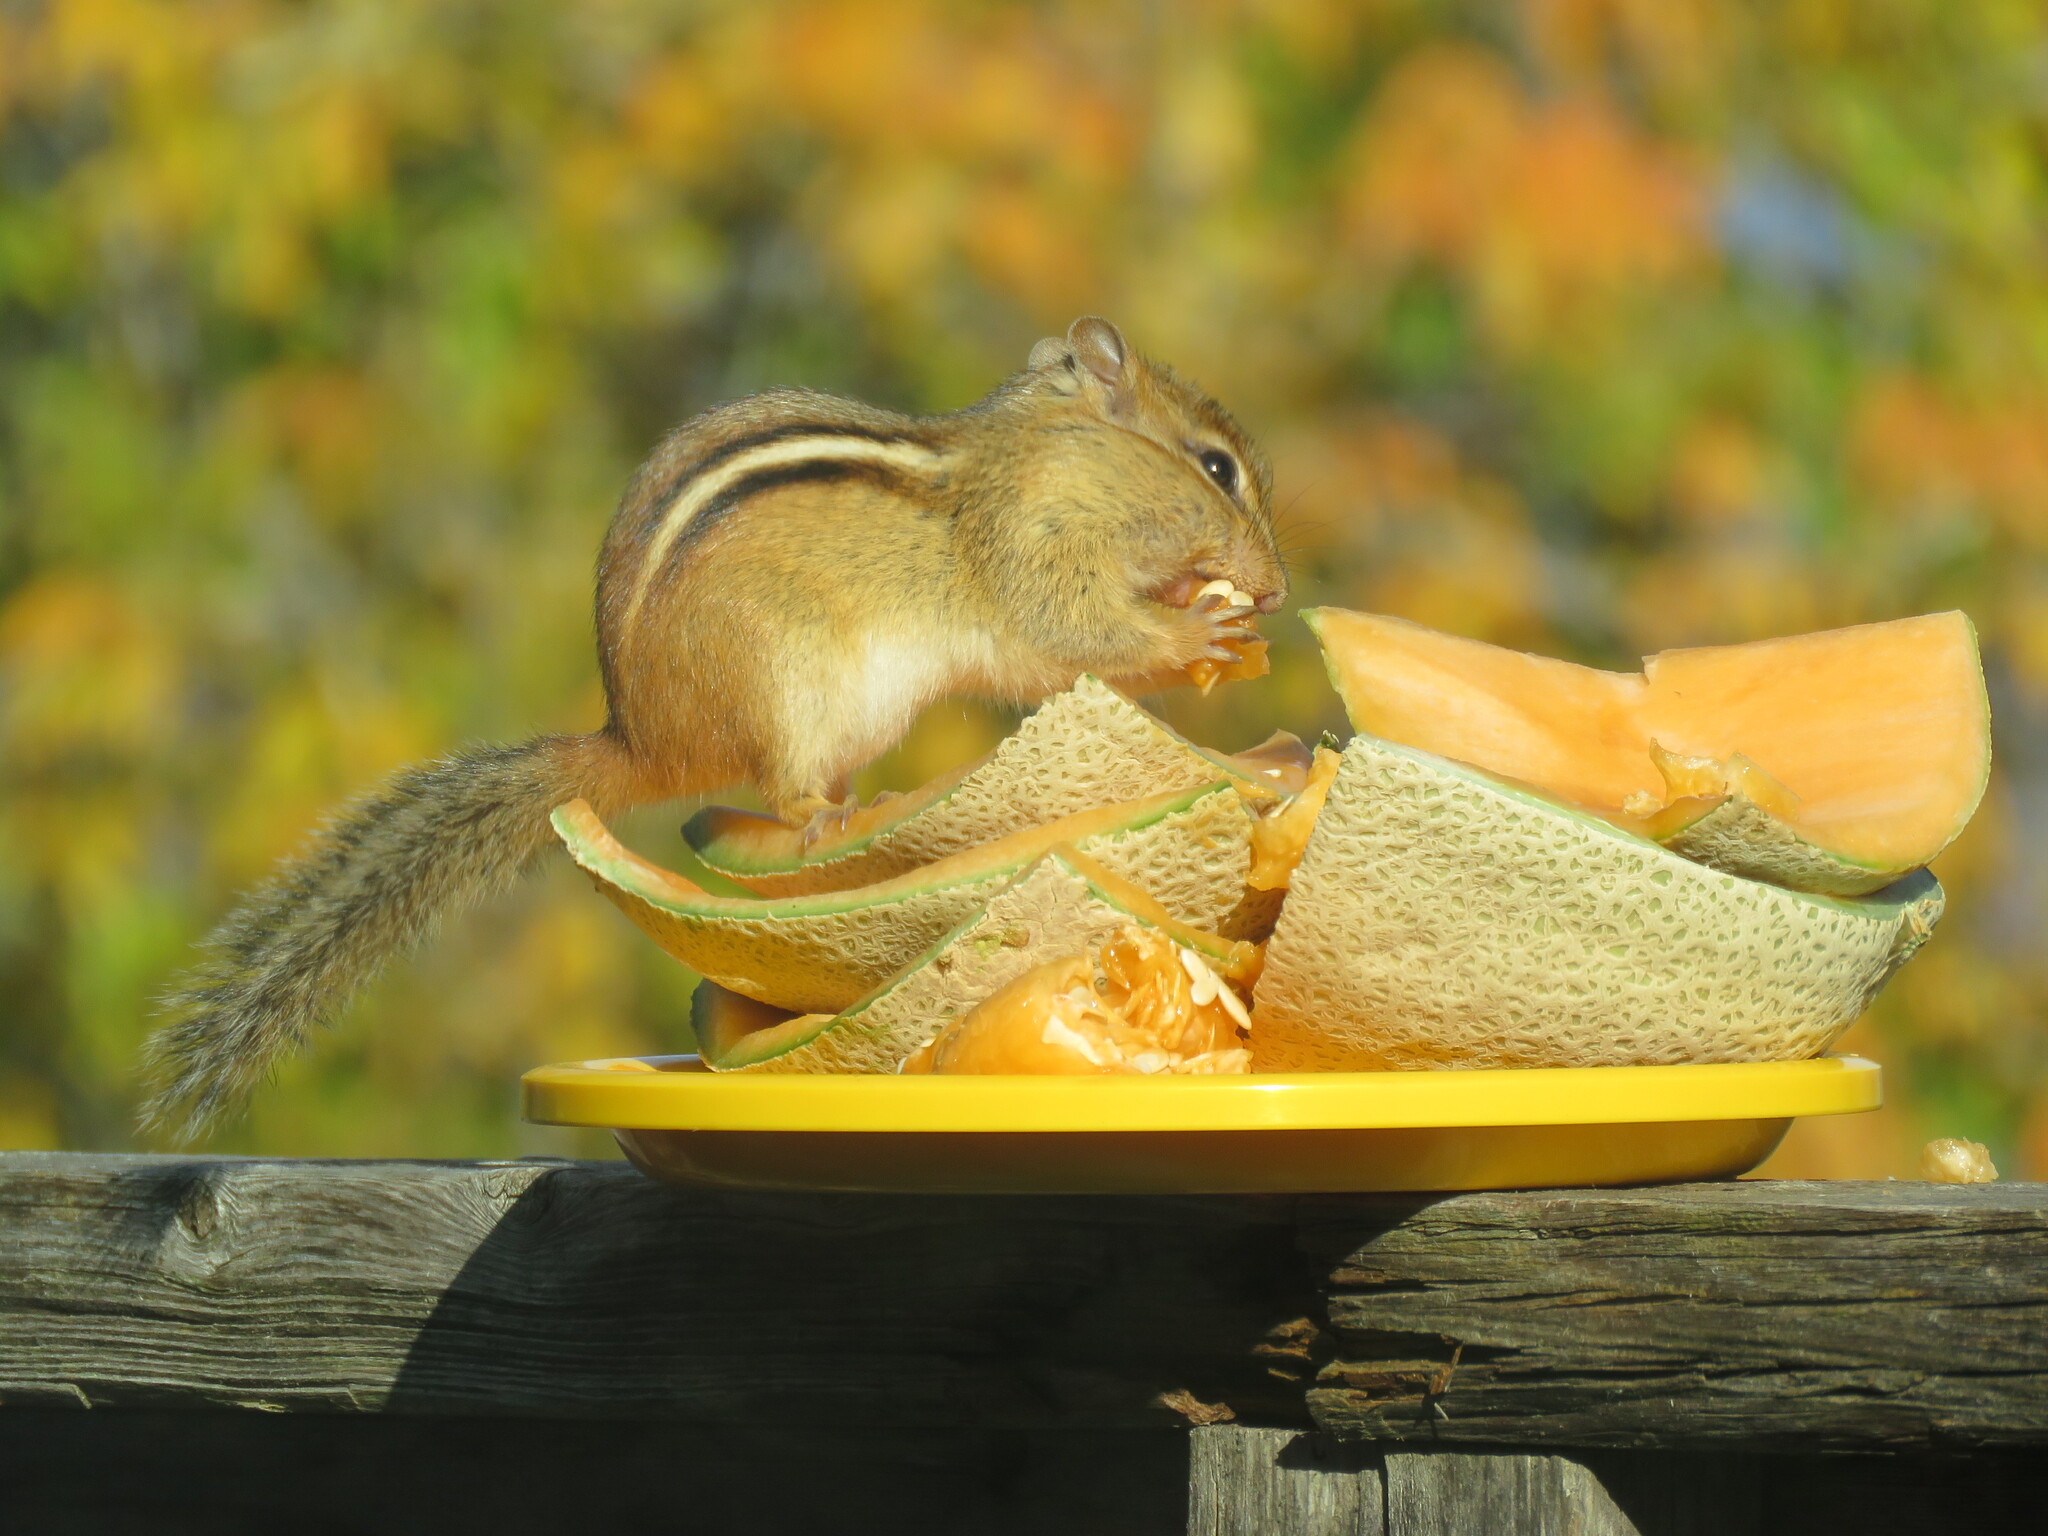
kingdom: Animalia
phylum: Chordata
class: Mammalia
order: Rodentia
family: Sciuridae
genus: Tamias
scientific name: Tamias striatus
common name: Eastern chipmunk
